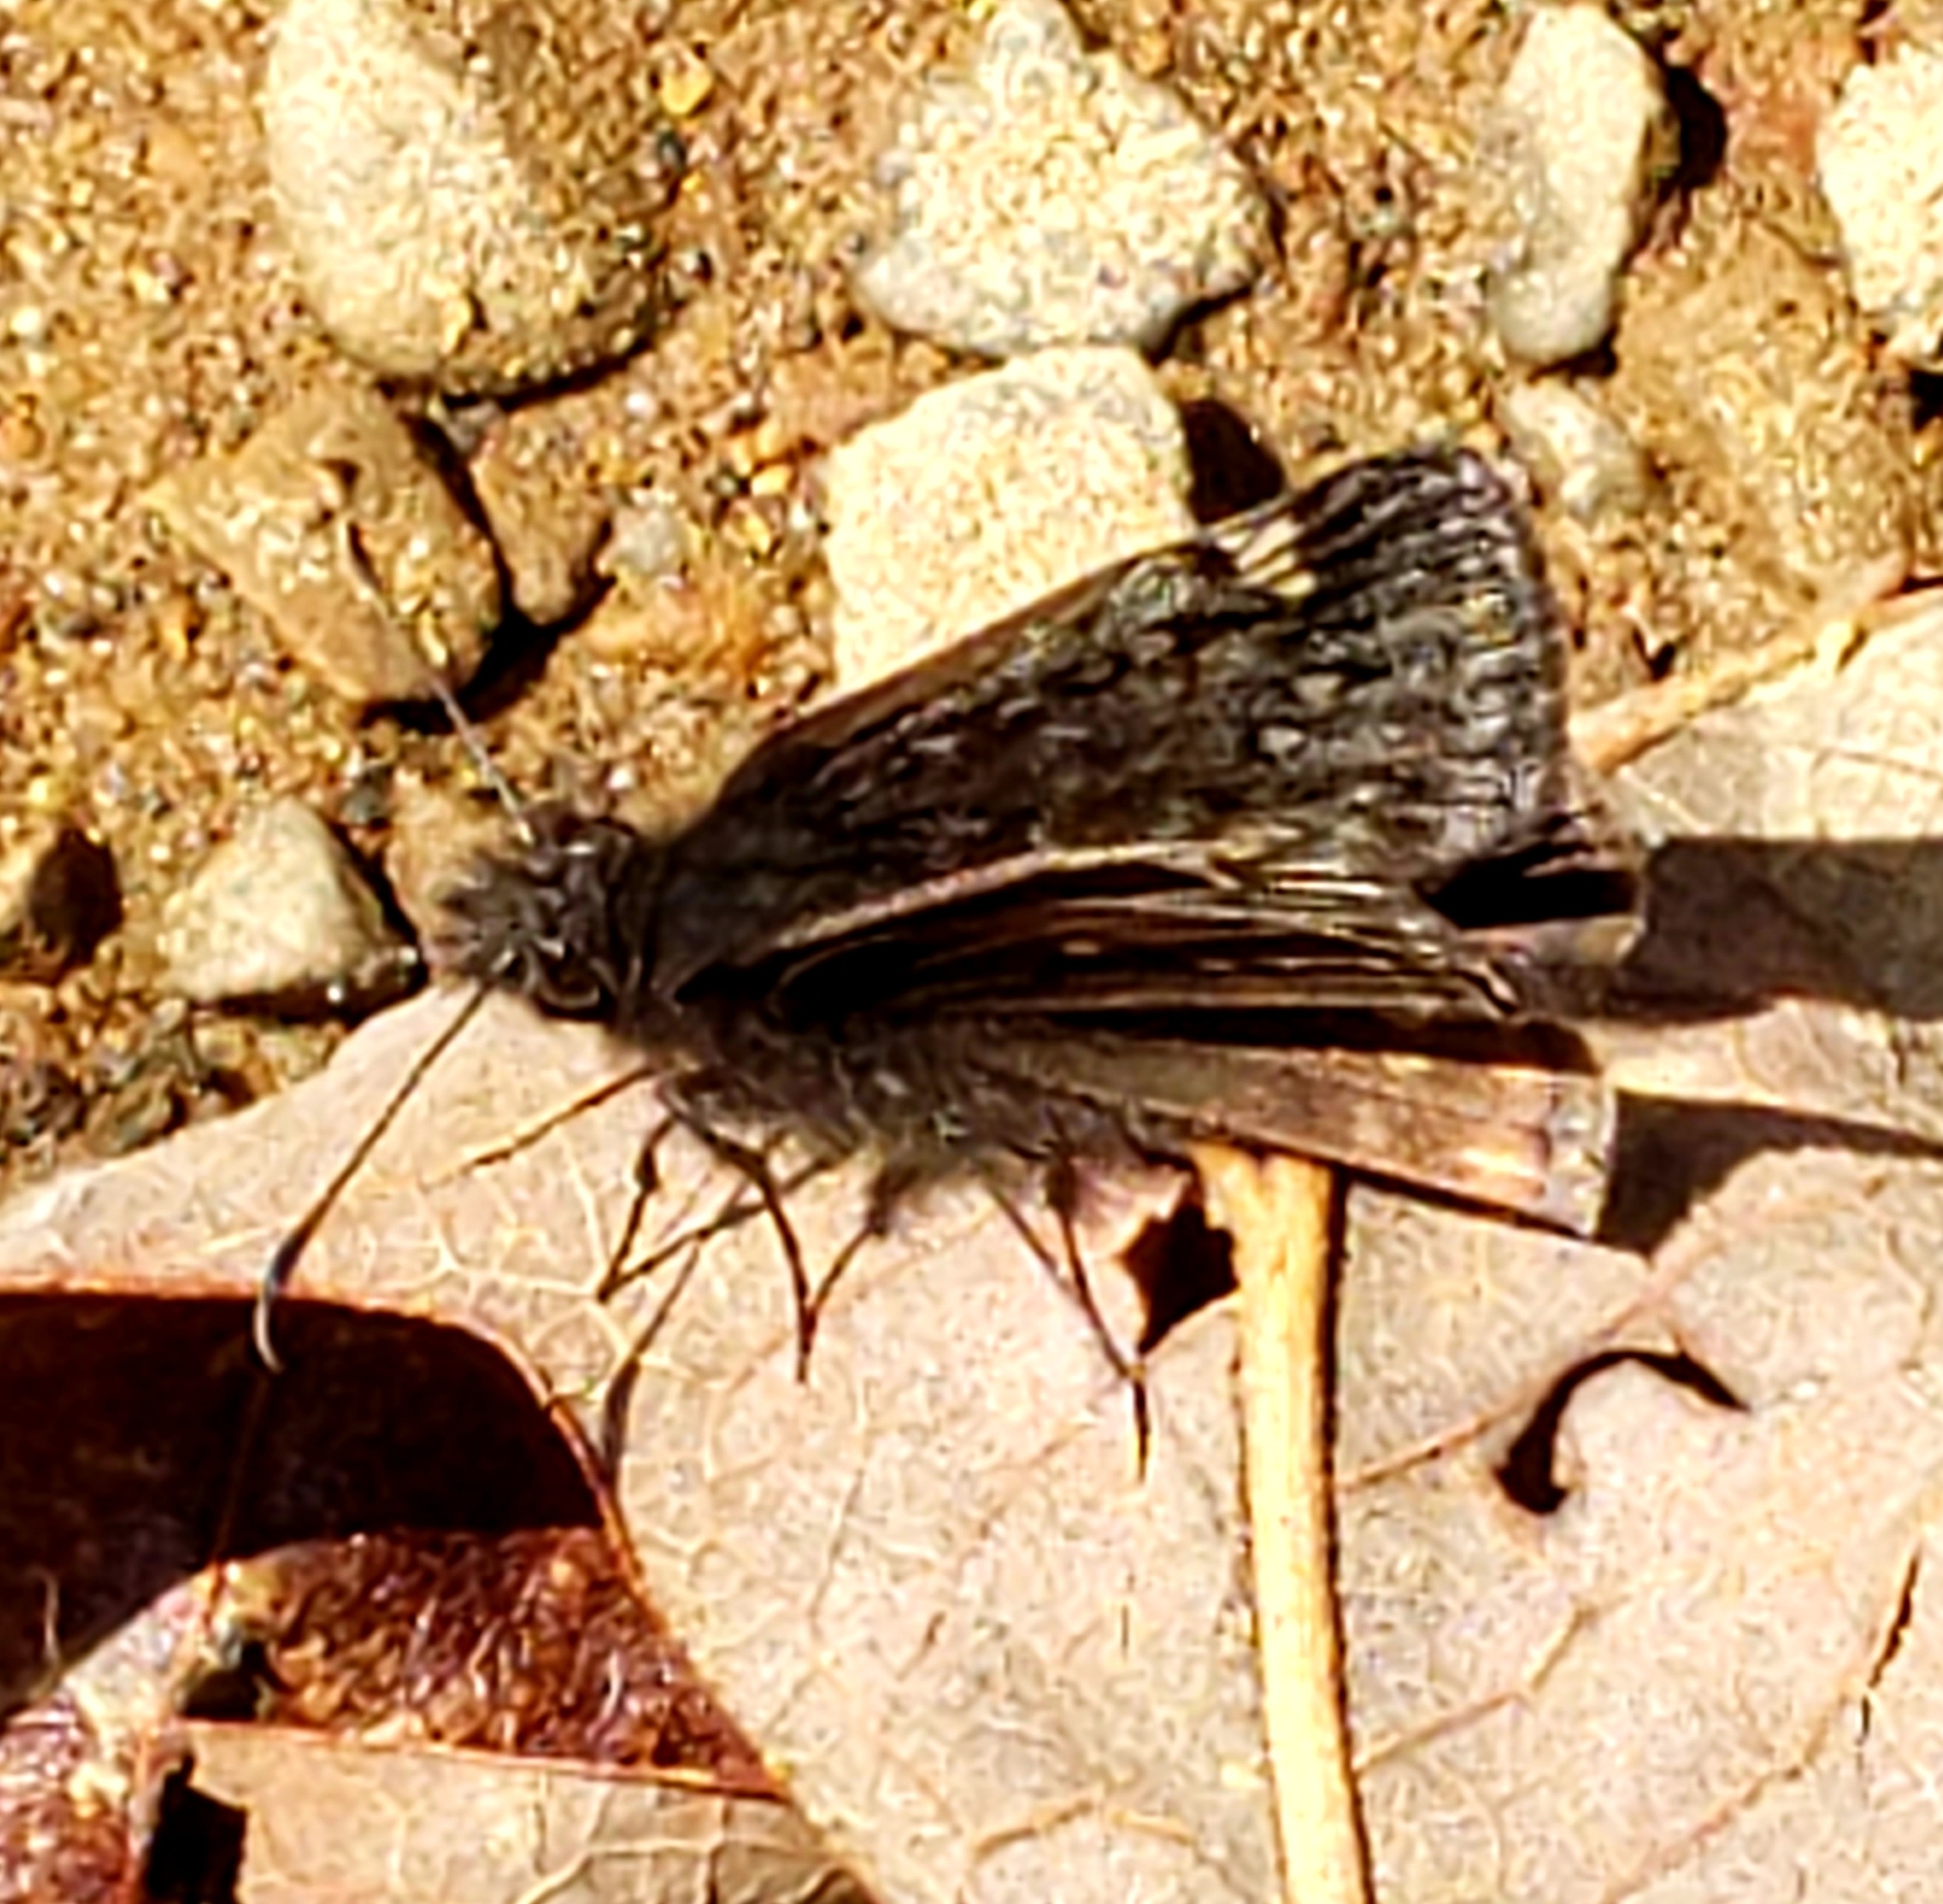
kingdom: Animalia
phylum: Arthropoda
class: Insecta
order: Lepidoptera
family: Hesperiidae
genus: Erynnis
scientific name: Erynnis juvenalis
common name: Juvenal's duskywing
